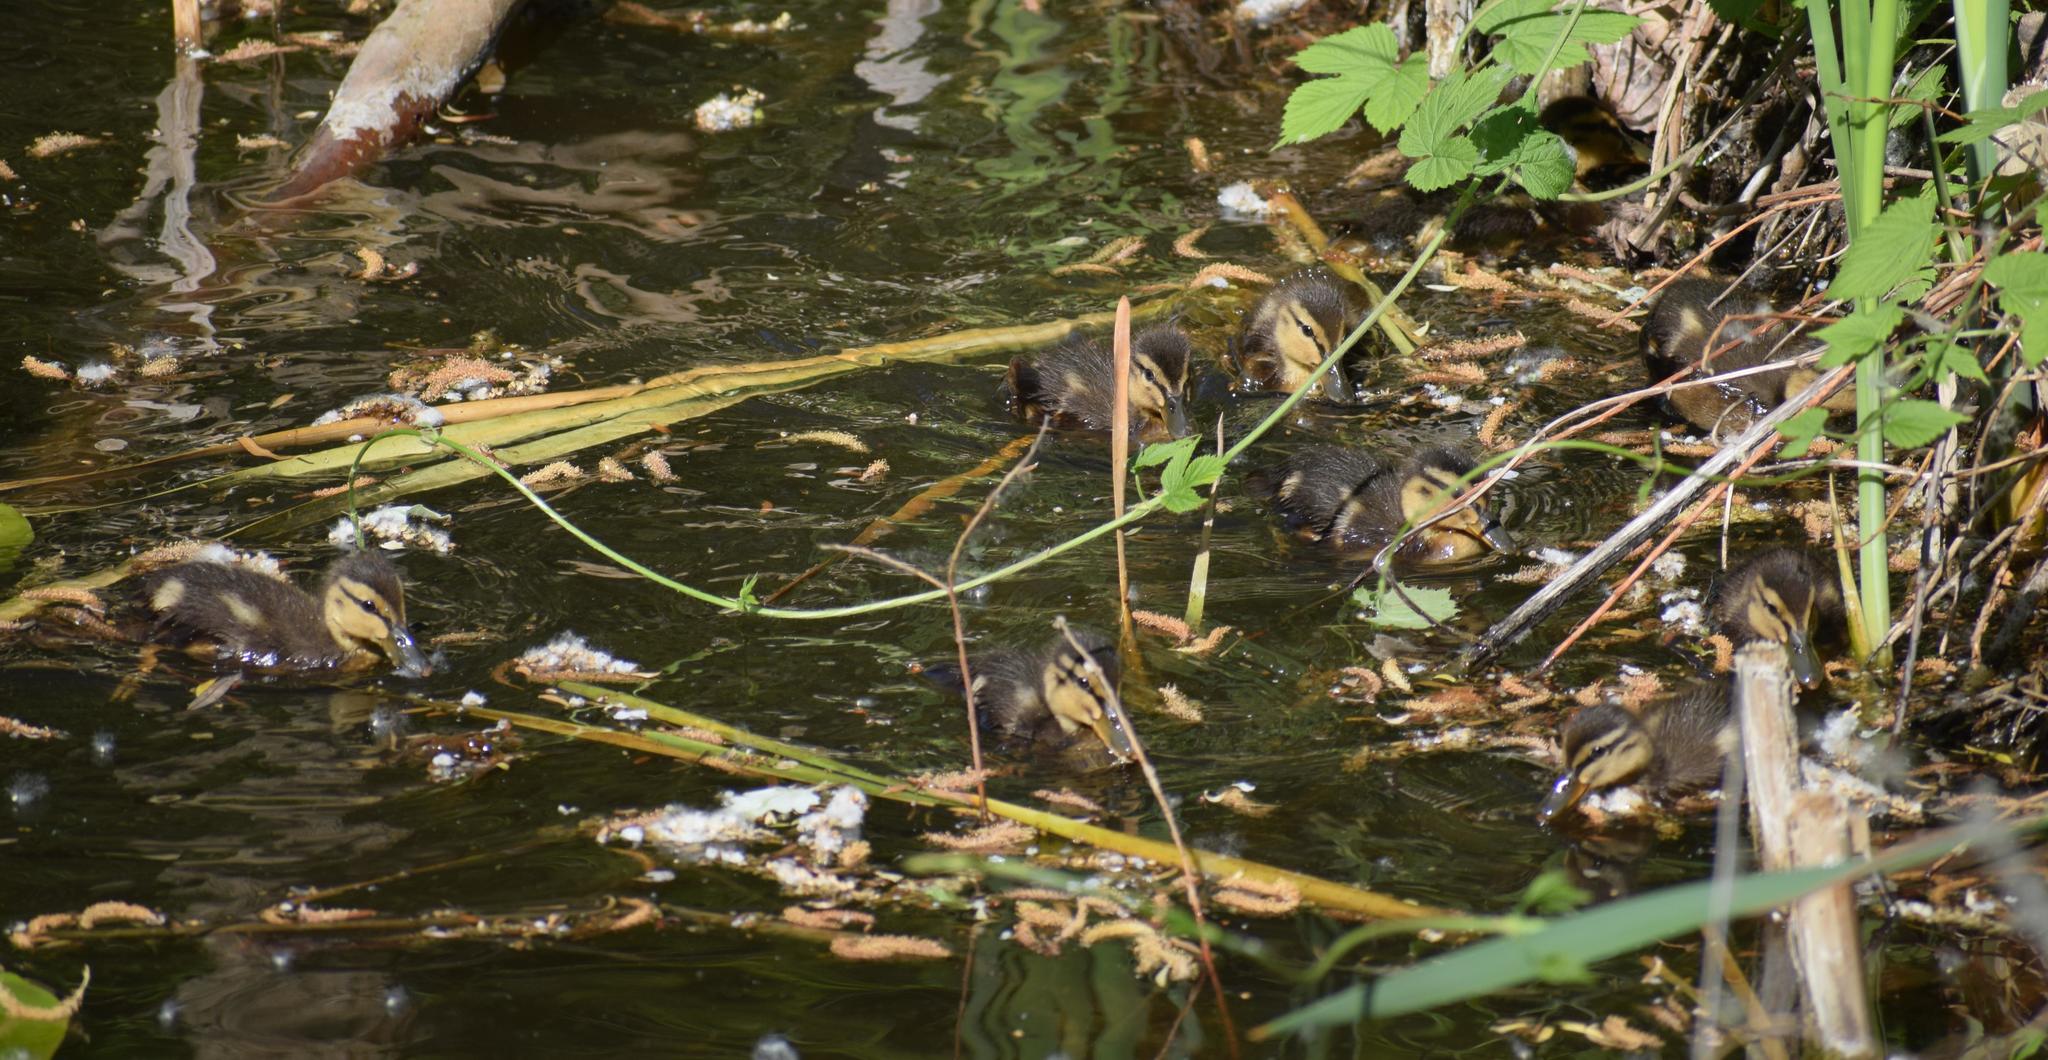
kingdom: Animalia
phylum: Chordata
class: Aves
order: Anseriformes
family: Anatidae
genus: Anas
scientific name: Anas platyrhynchos
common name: Mallard
